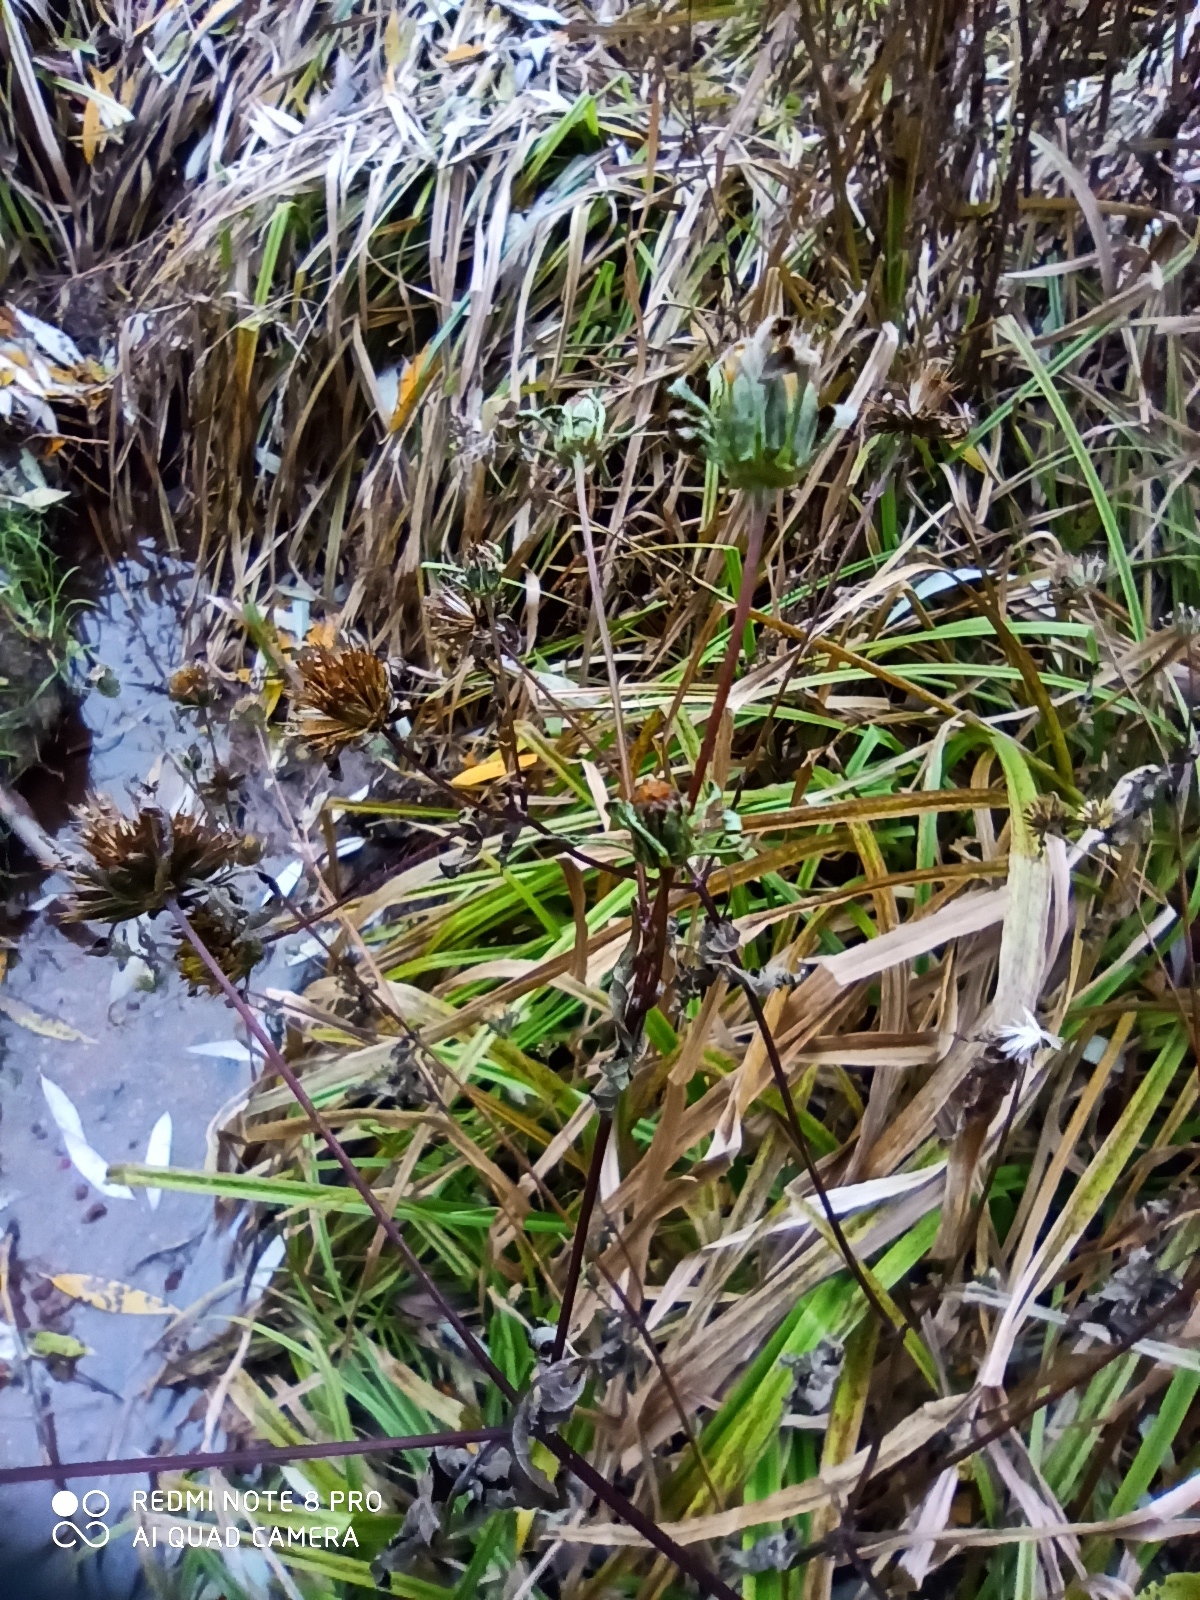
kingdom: Plantae
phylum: Tracheophyta
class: Magnoliopsida
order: Asterales
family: Asteraceae
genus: Bidens
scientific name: Bidens frondosa
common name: Beggarticks
